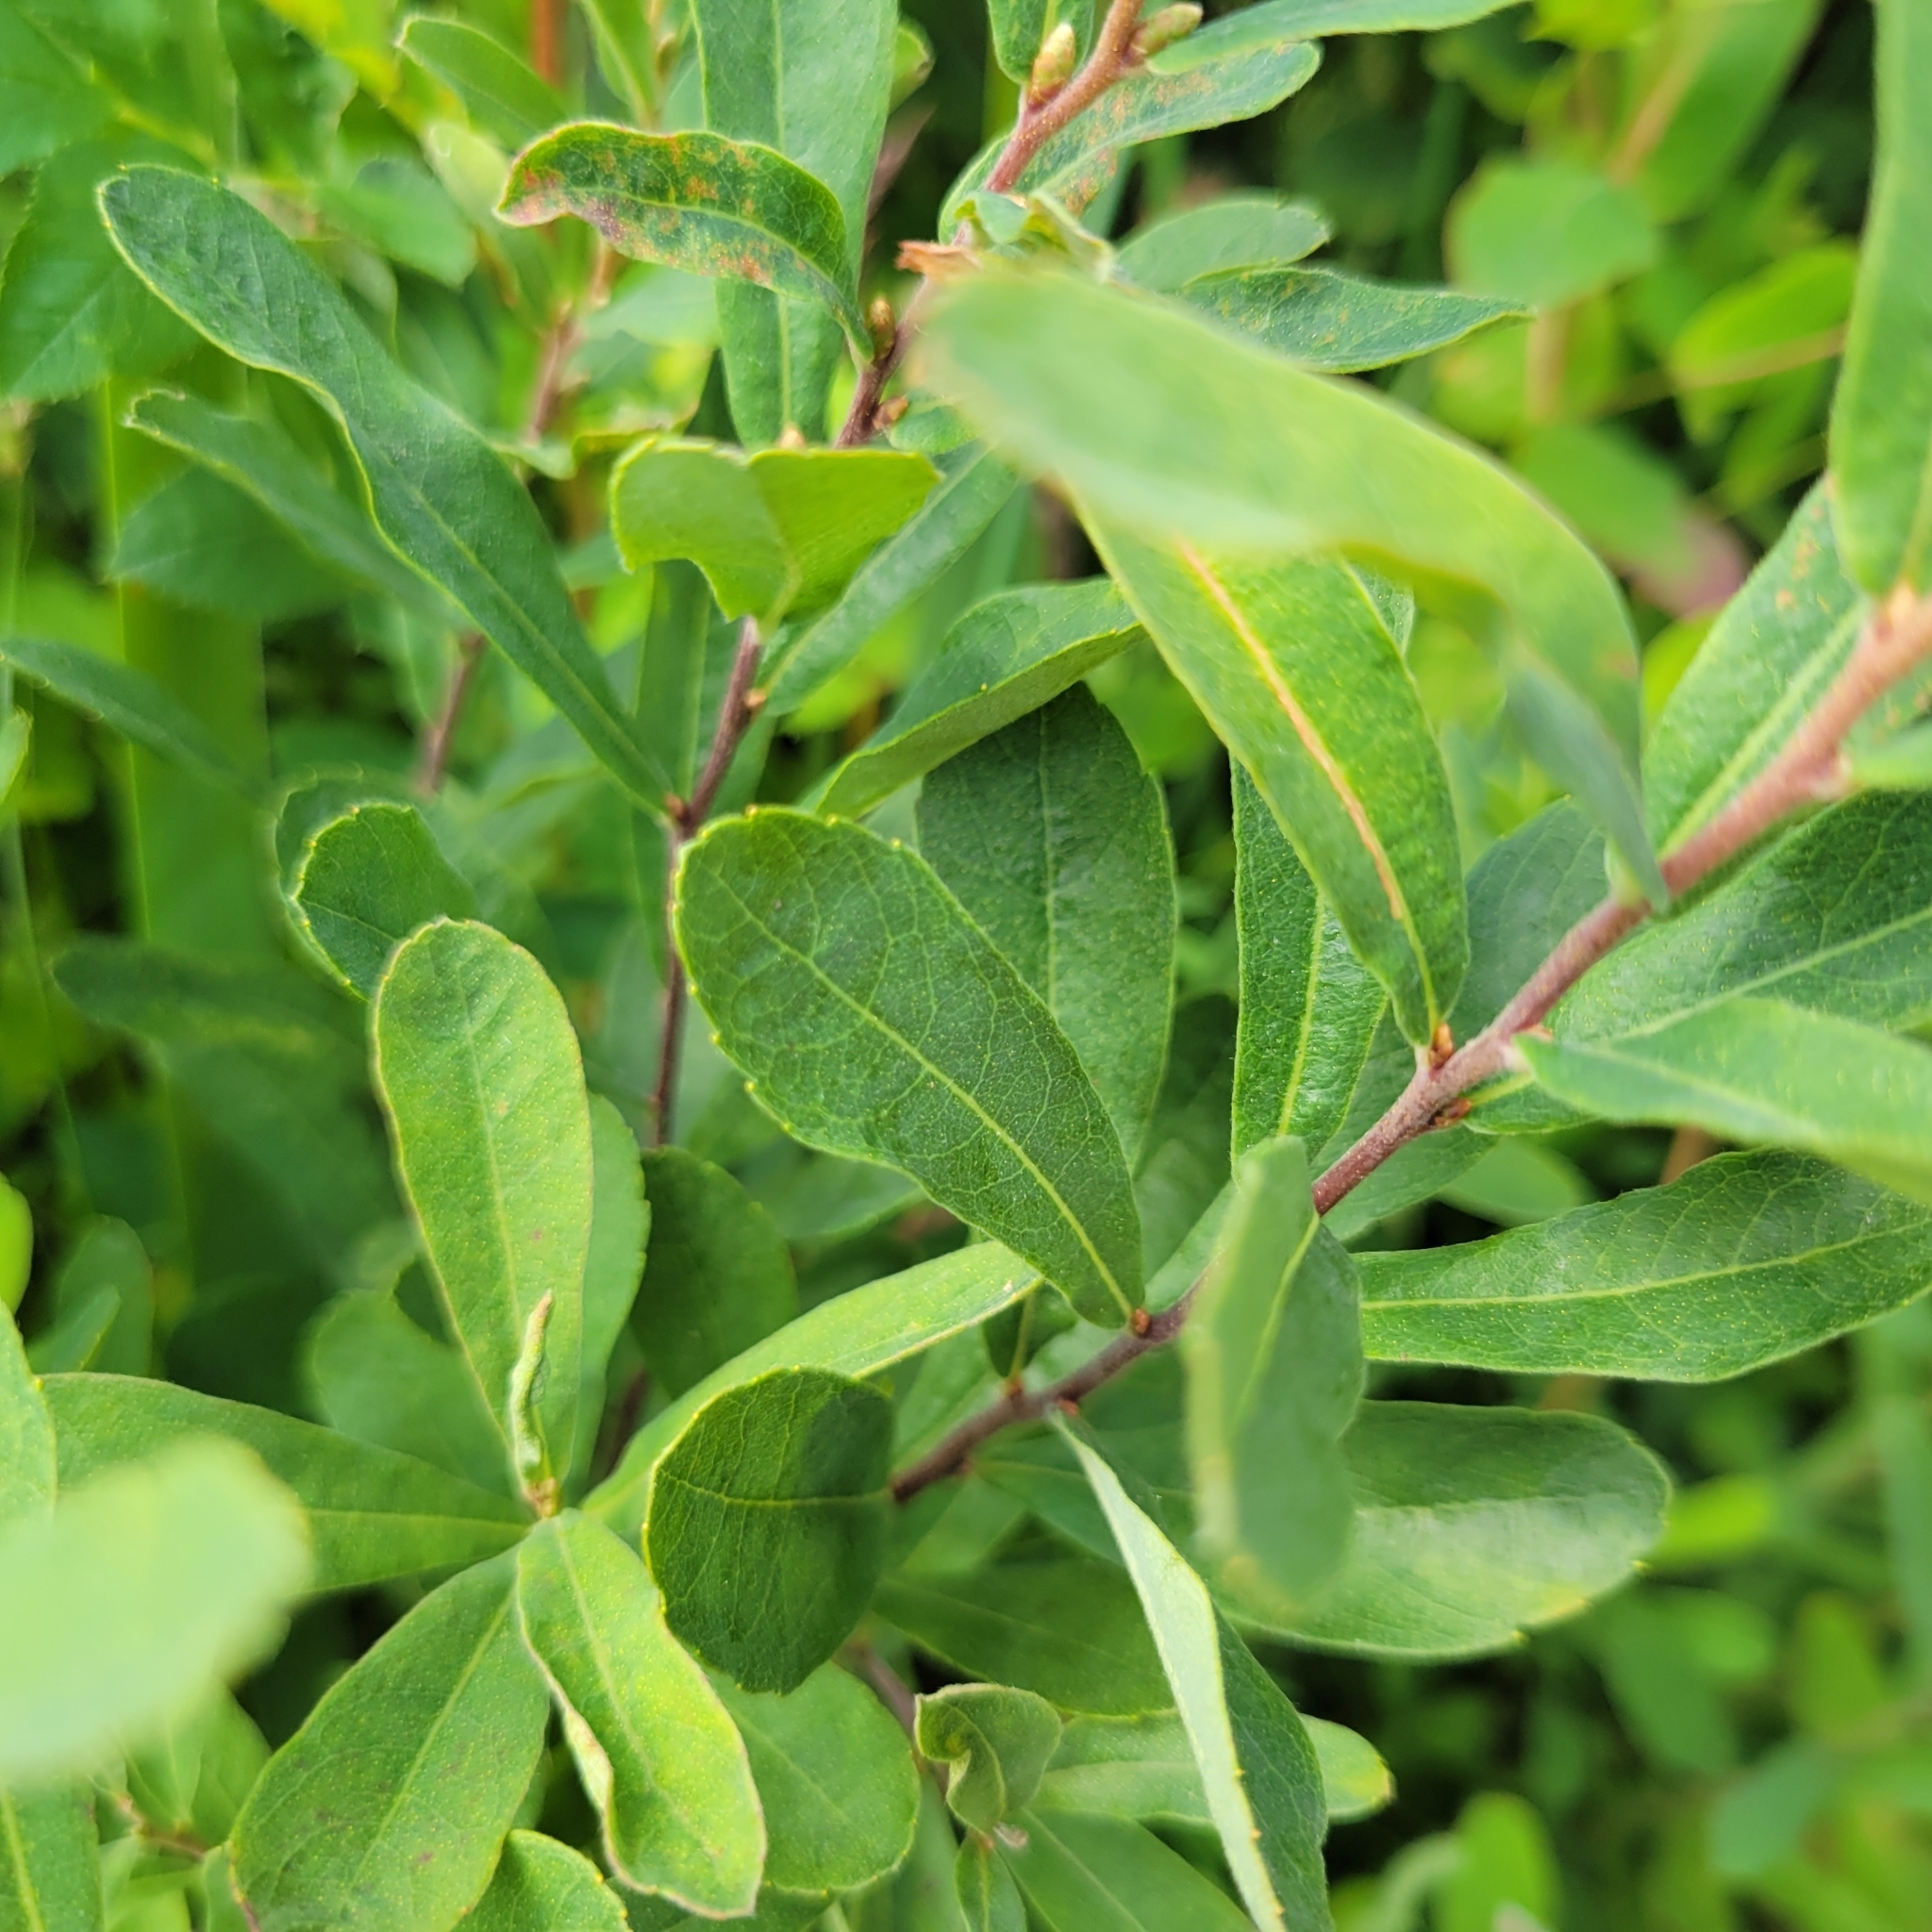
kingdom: Plantae
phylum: Tracheophyta
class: Magnoliopsida
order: Fagales
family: Myricaceae
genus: Myrica
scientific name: Myrica gale
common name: Sweet gale
